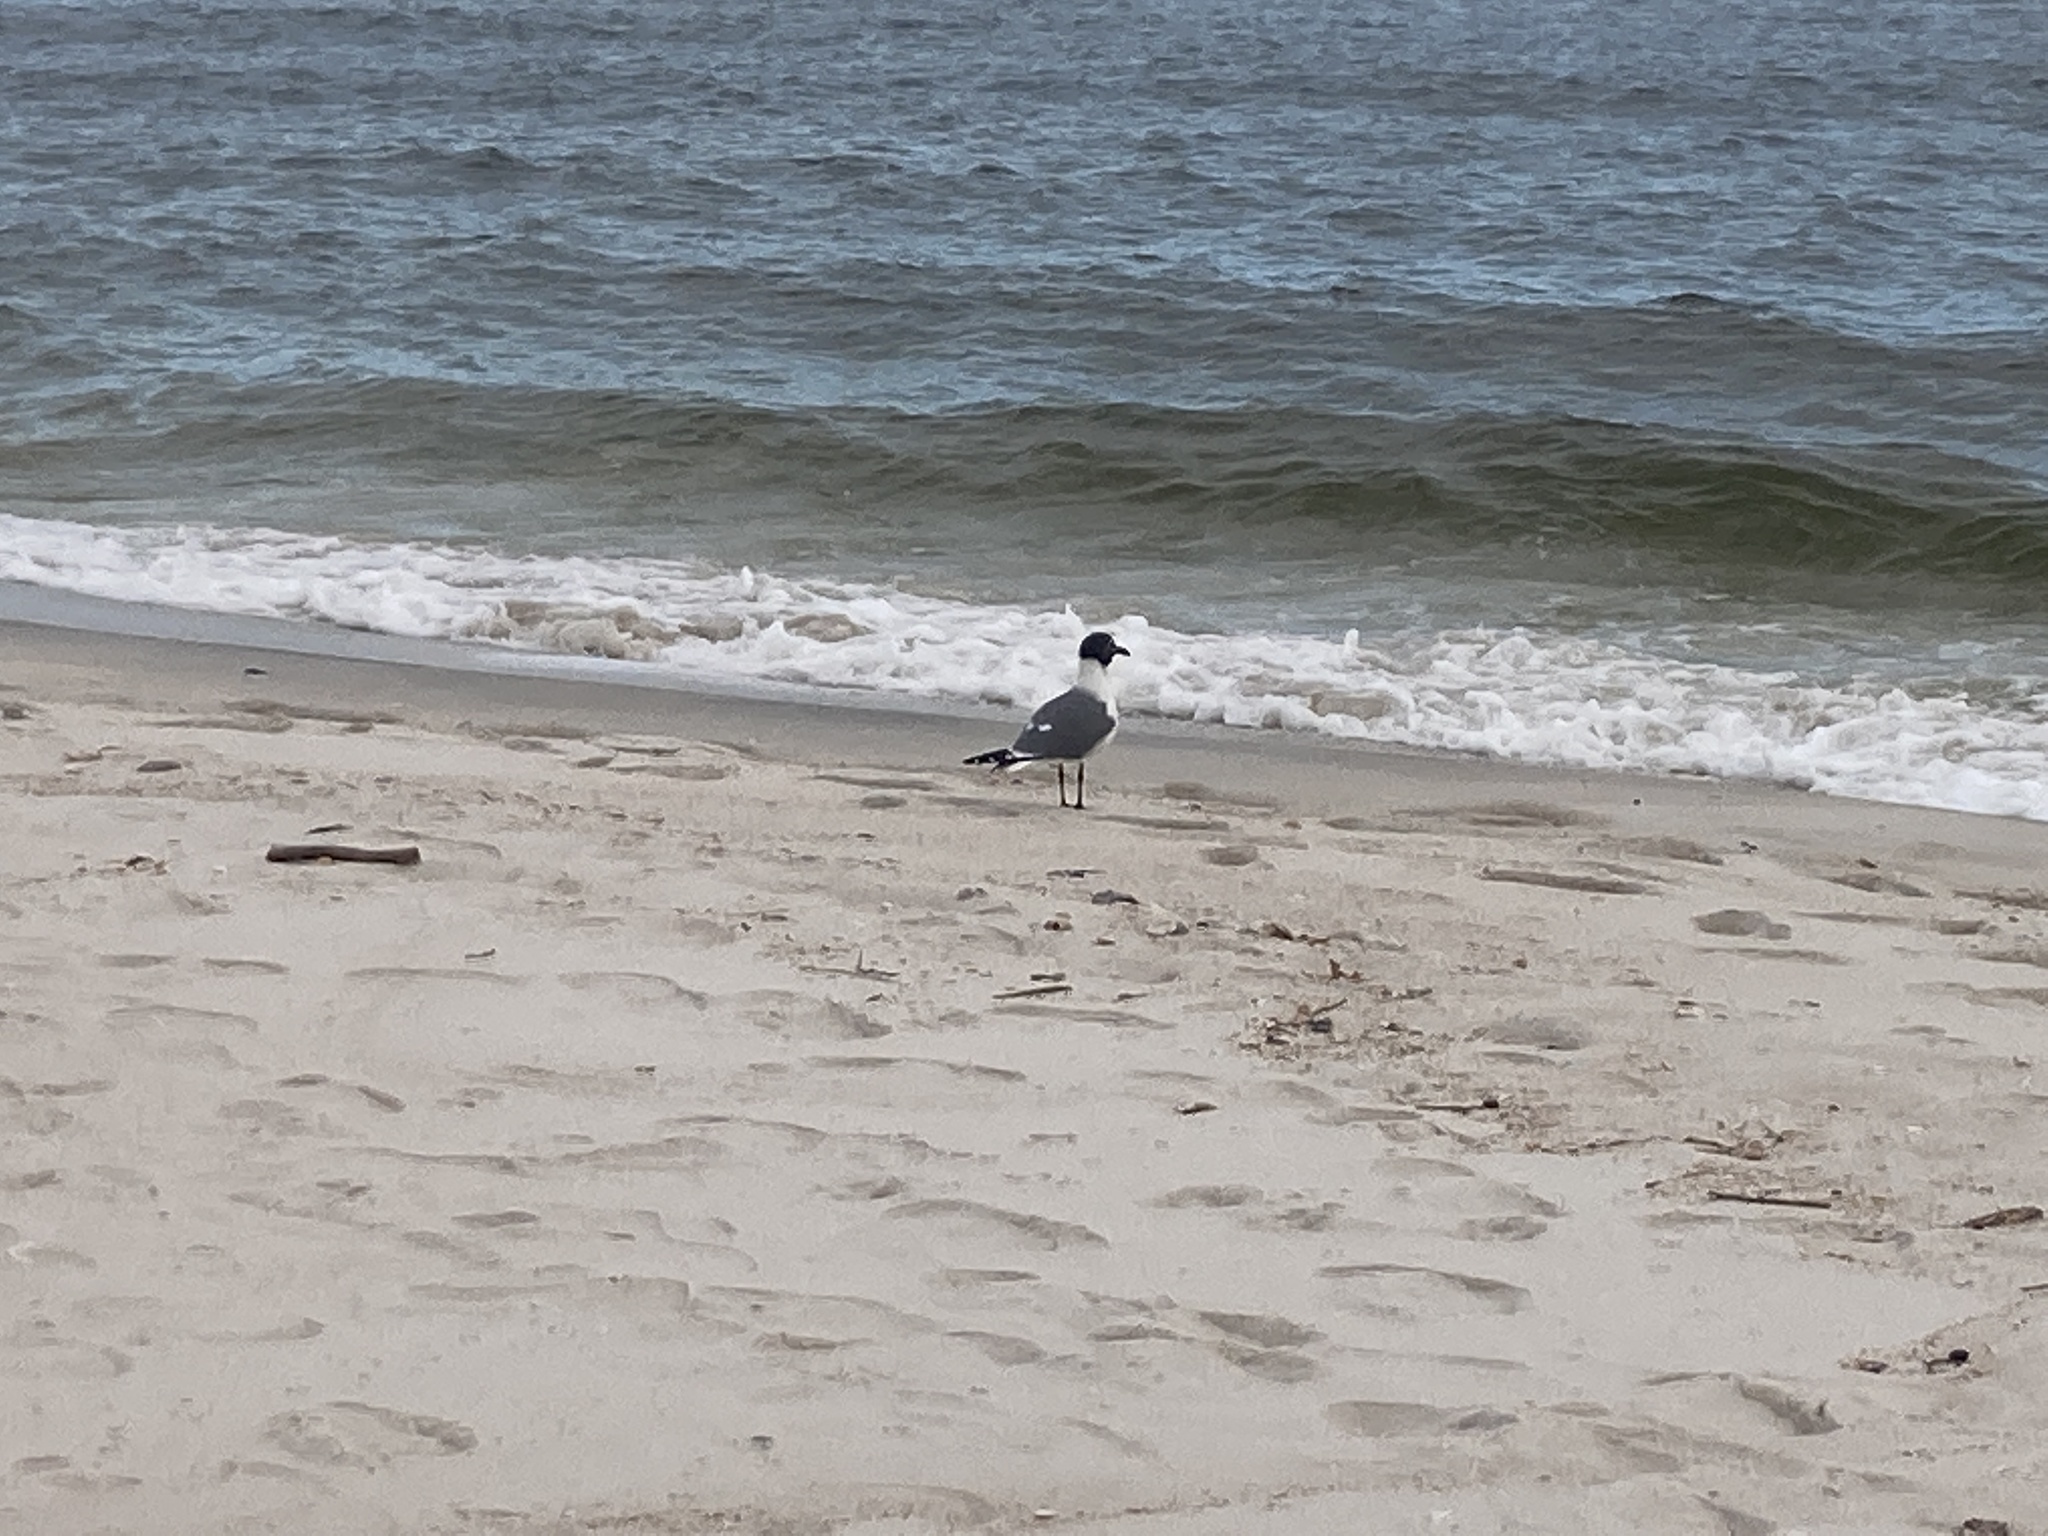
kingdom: Animalia
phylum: Chordata
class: Aves
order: Charadriiformes
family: Laridae
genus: Leucophaeus
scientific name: Leucophaeus atricilla
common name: Laughing gull
